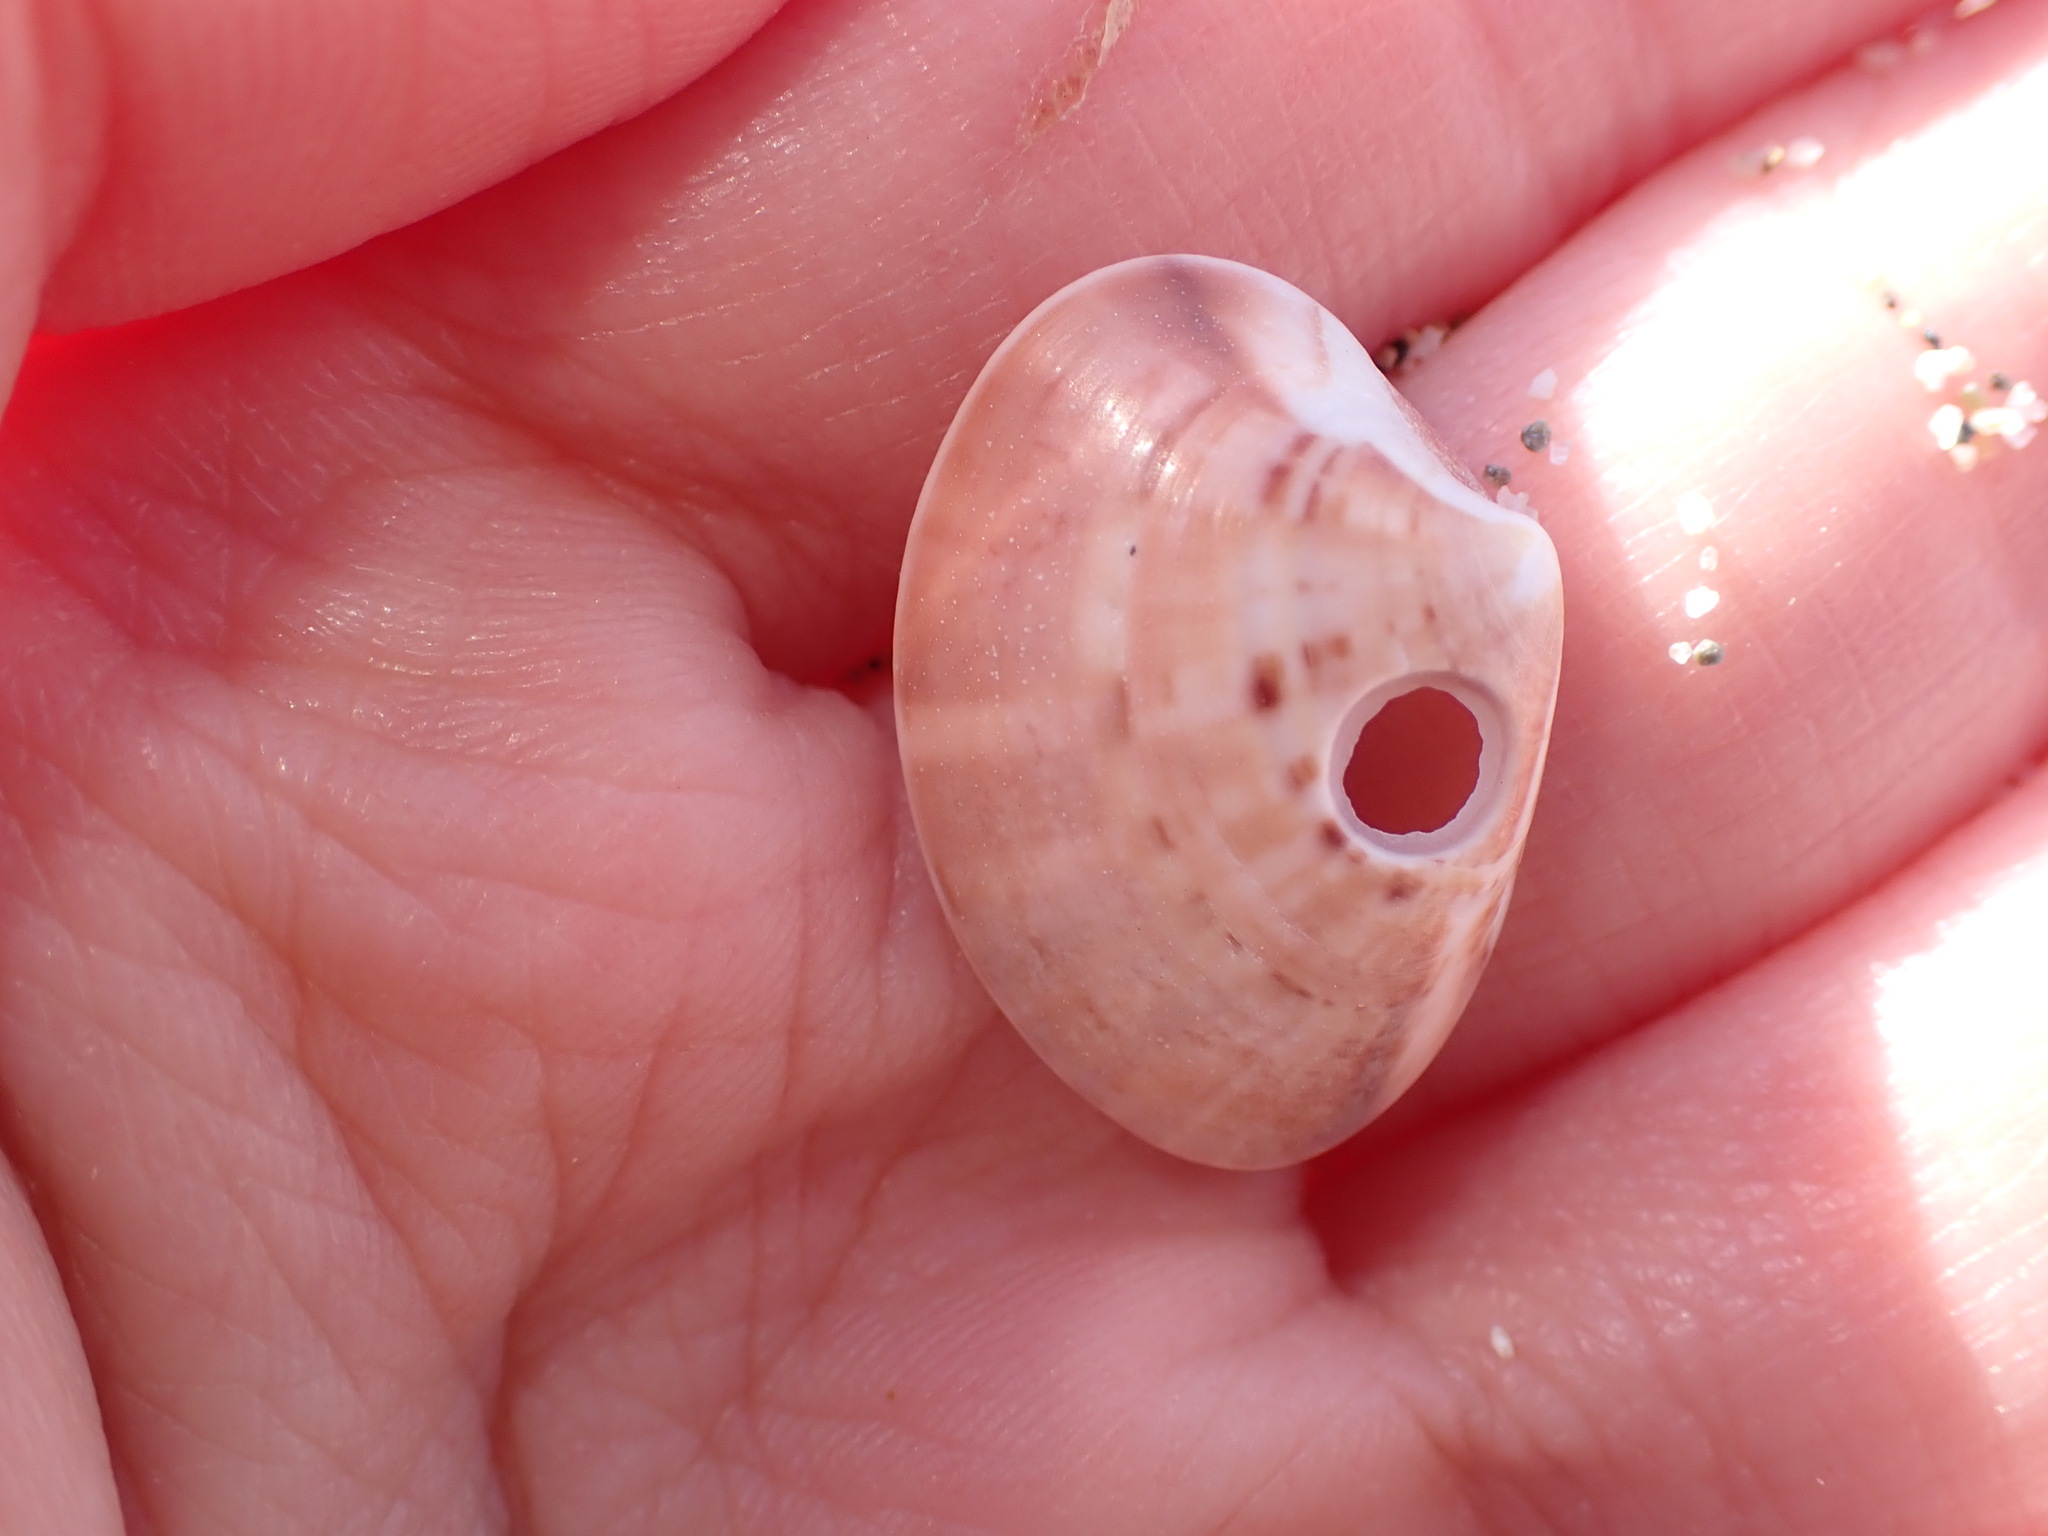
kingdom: Animalia
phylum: Mollusca
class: Bivalvia
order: Venerida
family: Veneridae
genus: Callista
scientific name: Callista chione
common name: Brown venus
